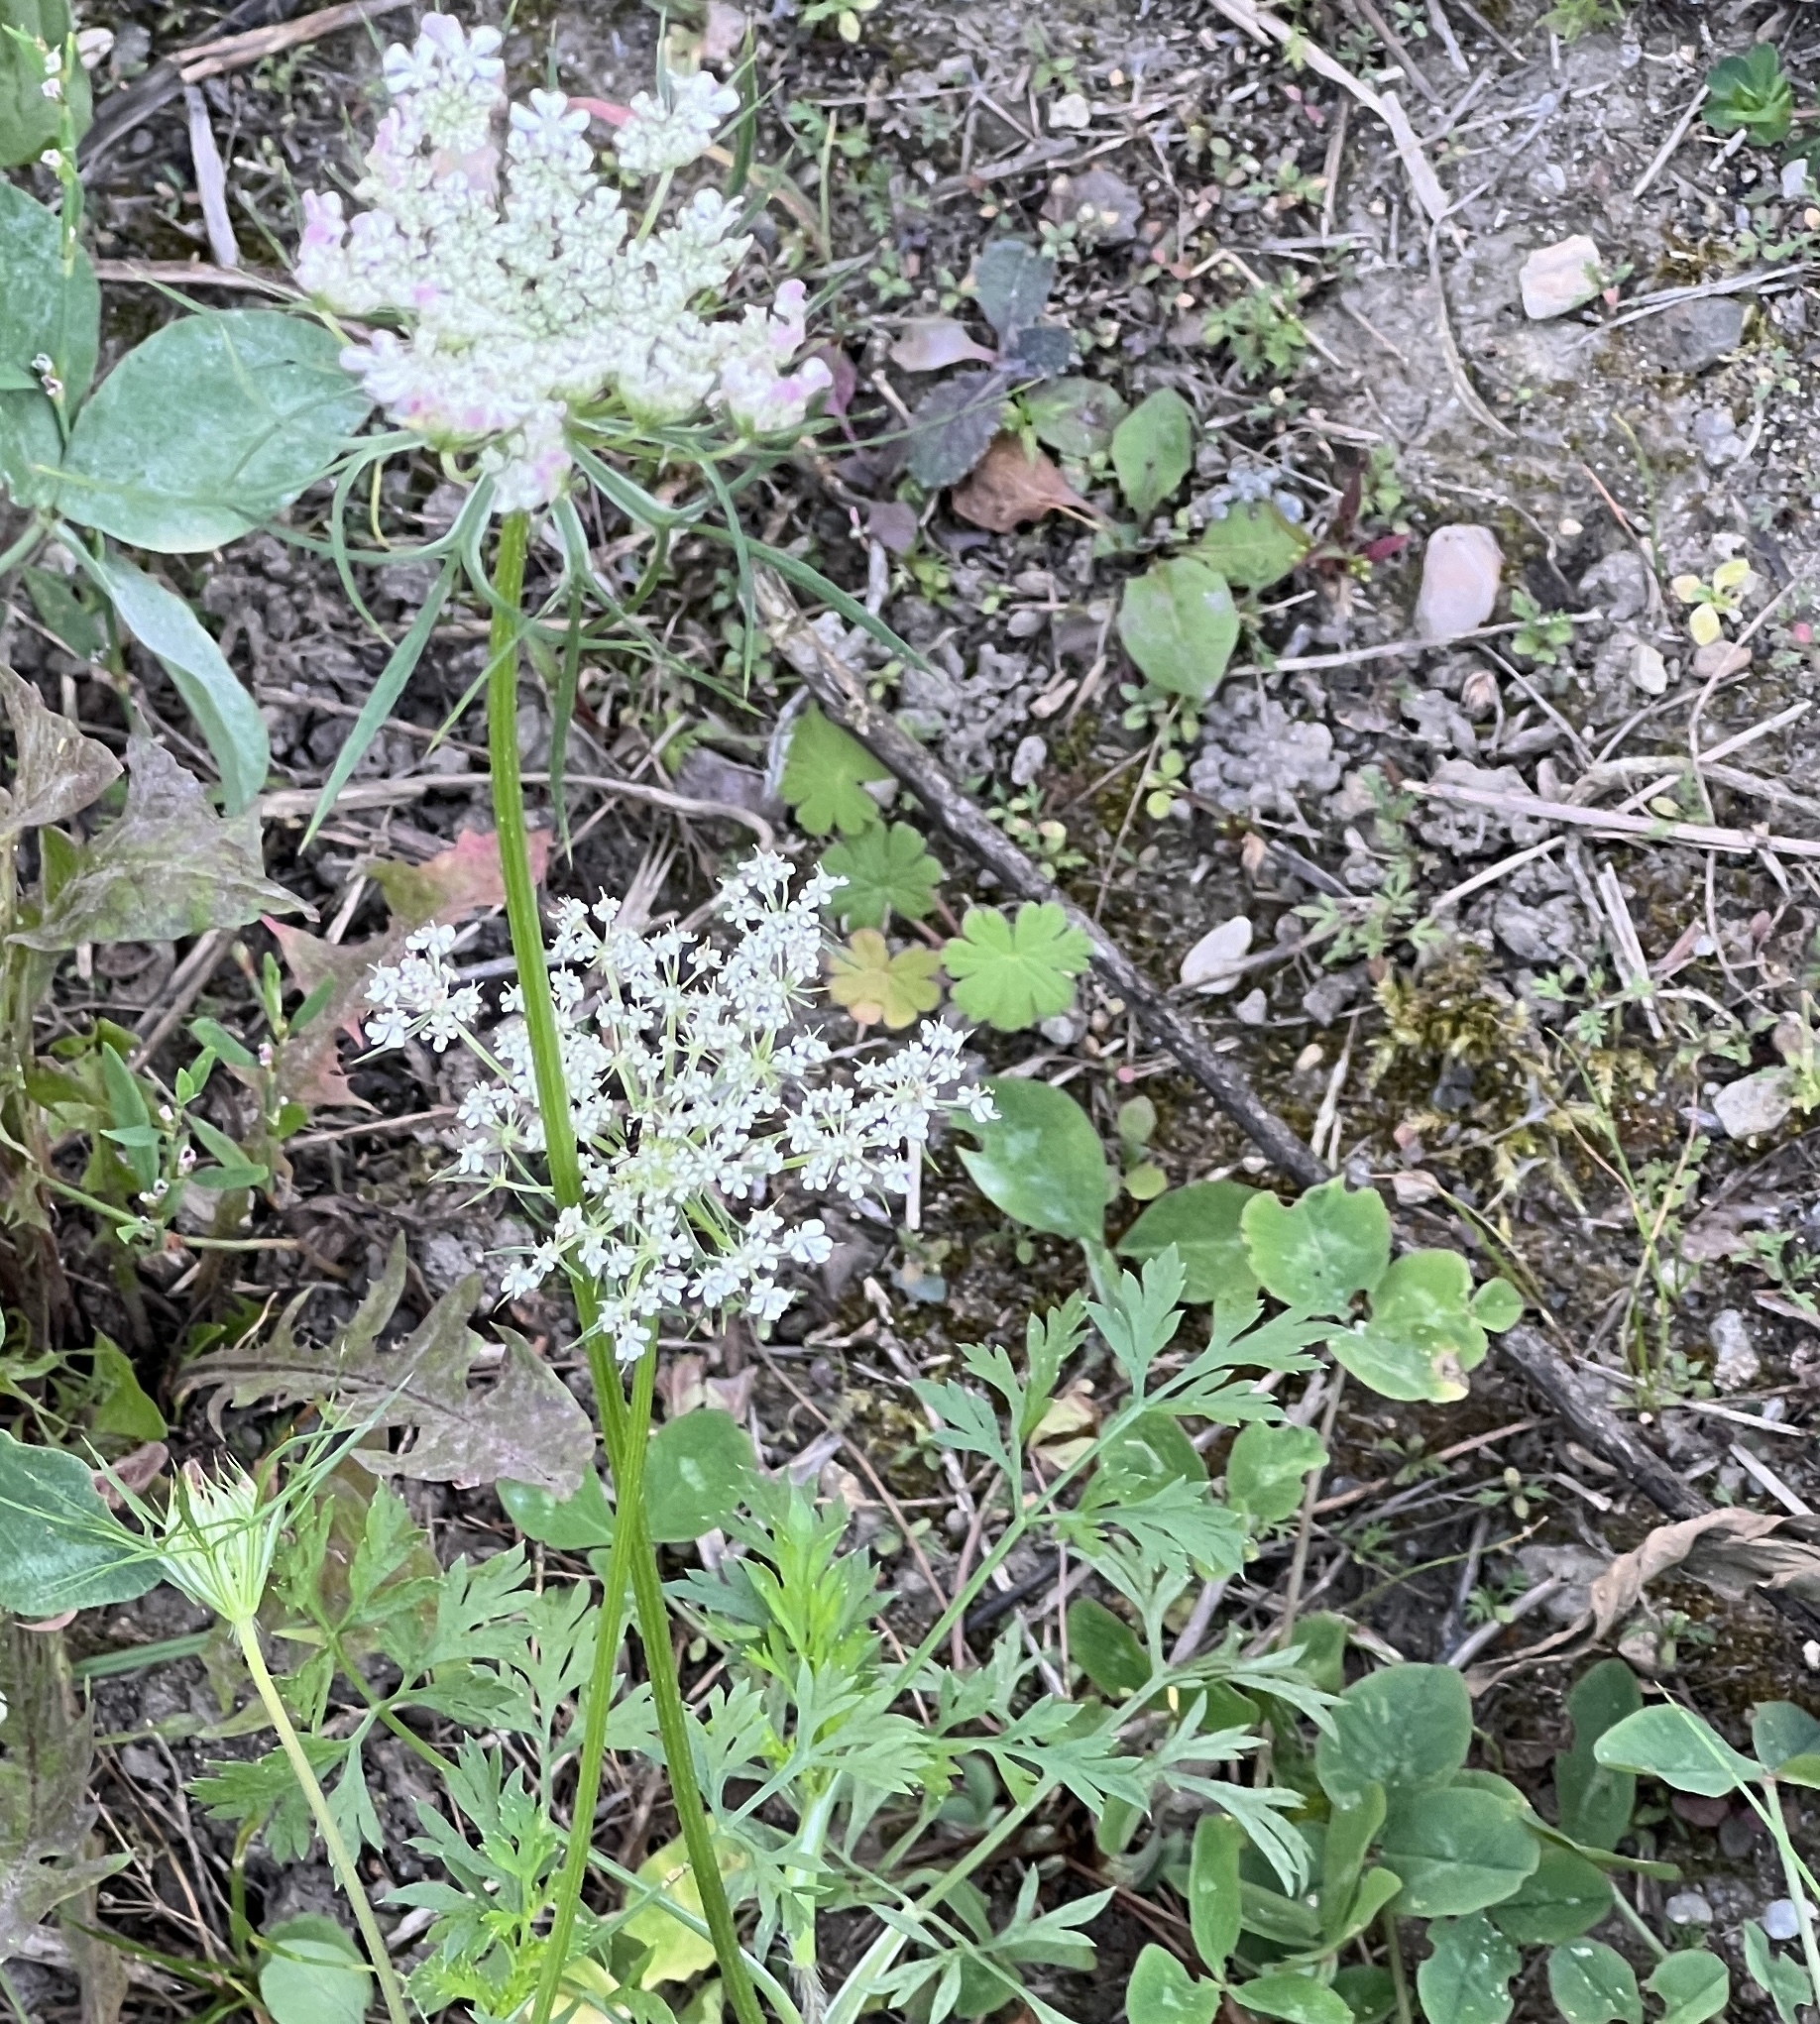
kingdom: Plantae
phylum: Tracheophyta
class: Magnoliopsida
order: Apiales
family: Apiaceae
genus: Daucus
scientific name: Daucus carota
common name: Wild carrot
